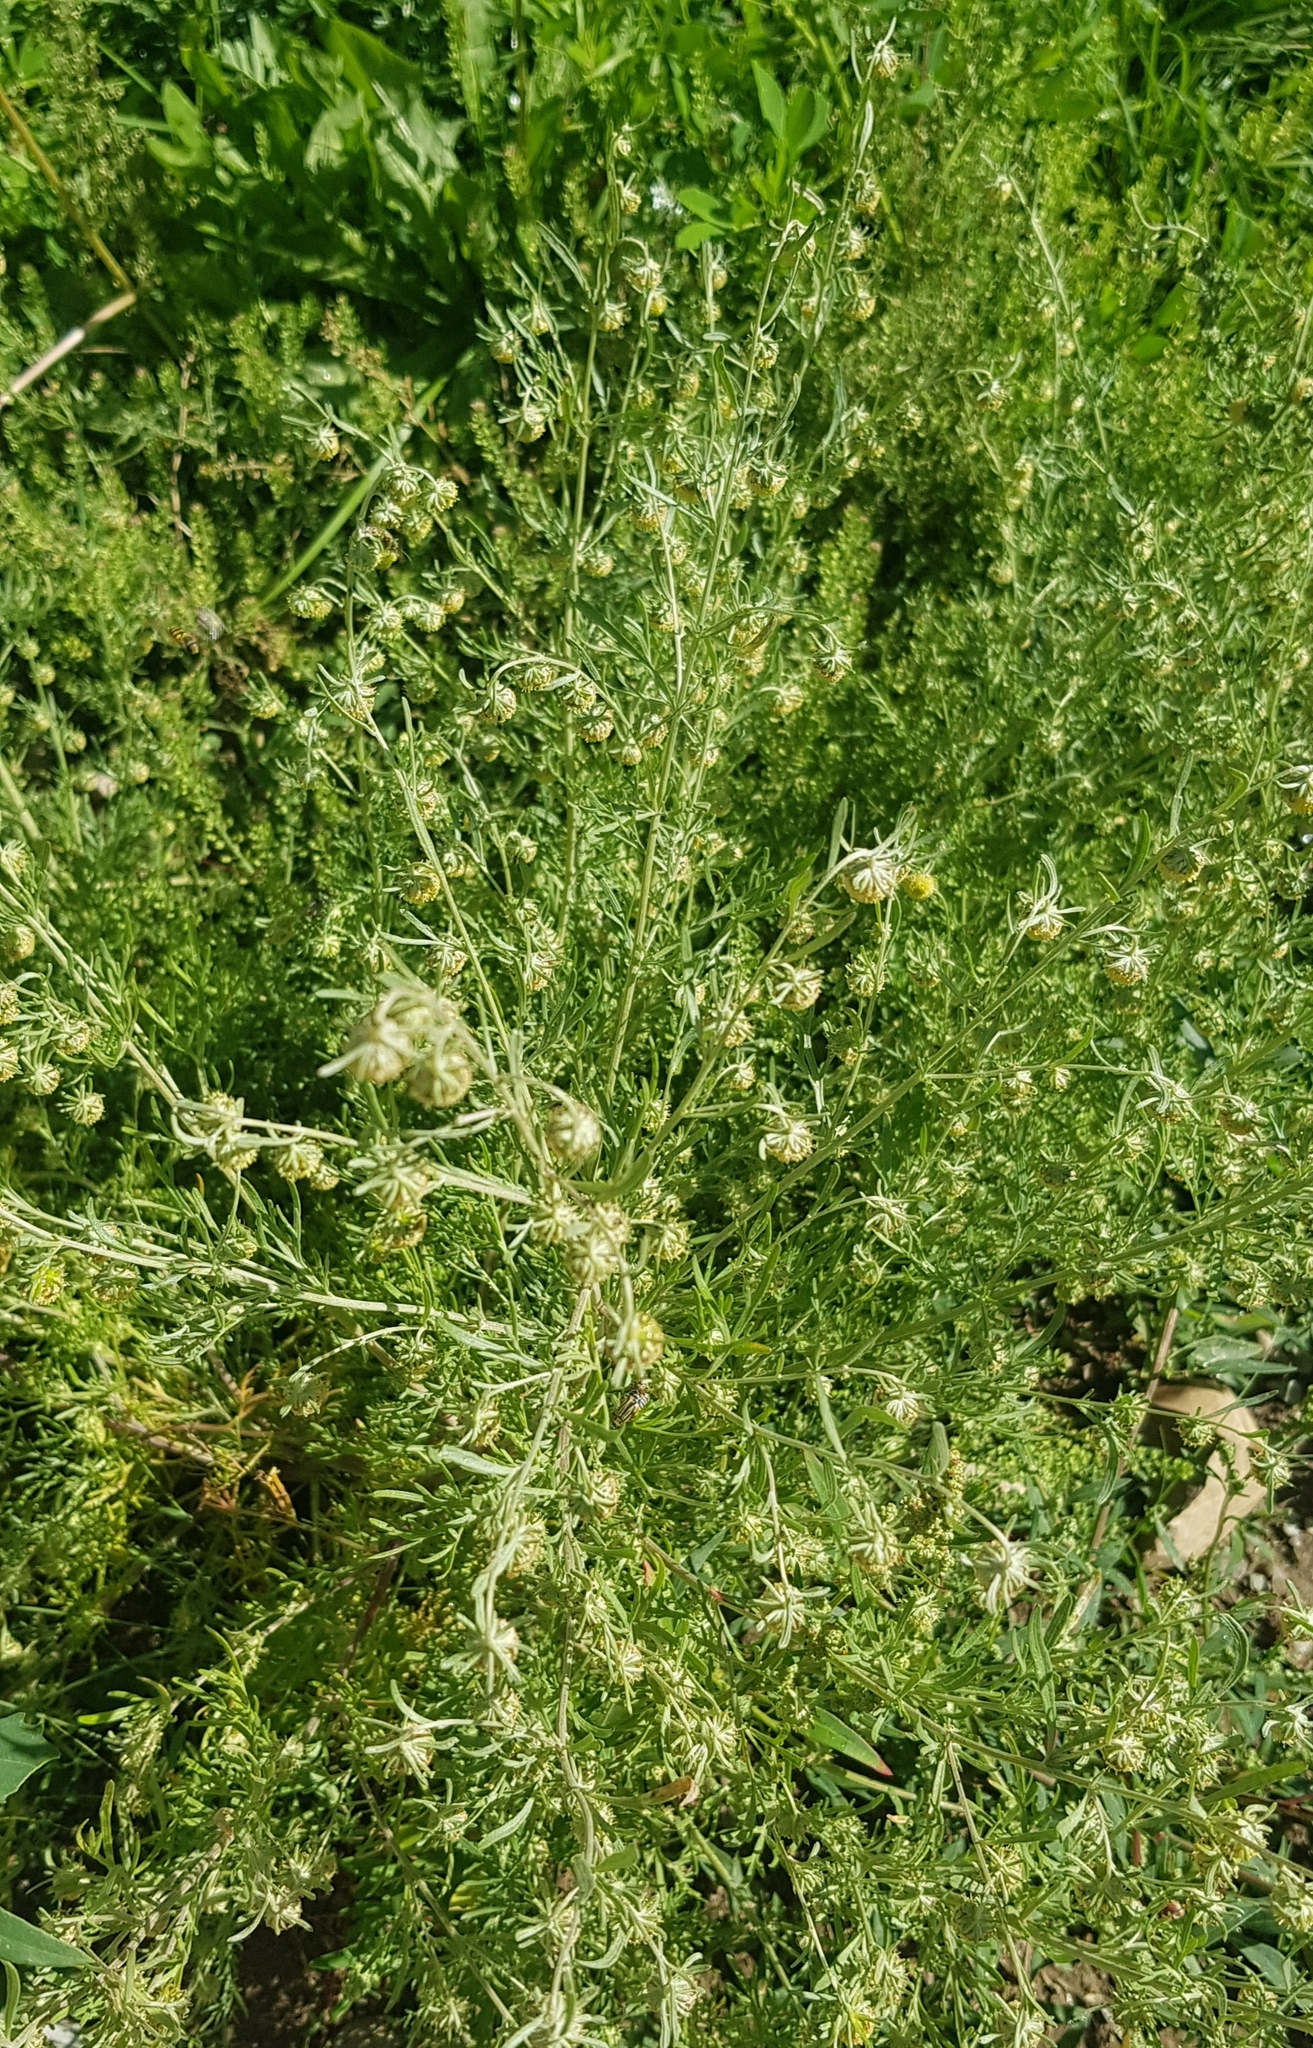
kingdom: Plantae
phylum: Tracheophyta
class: Magnoliopsida
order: Asterales
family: Asteraceae
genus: Artemisia
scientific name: Artemisia sieversiana
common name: Sieversian wormwood
